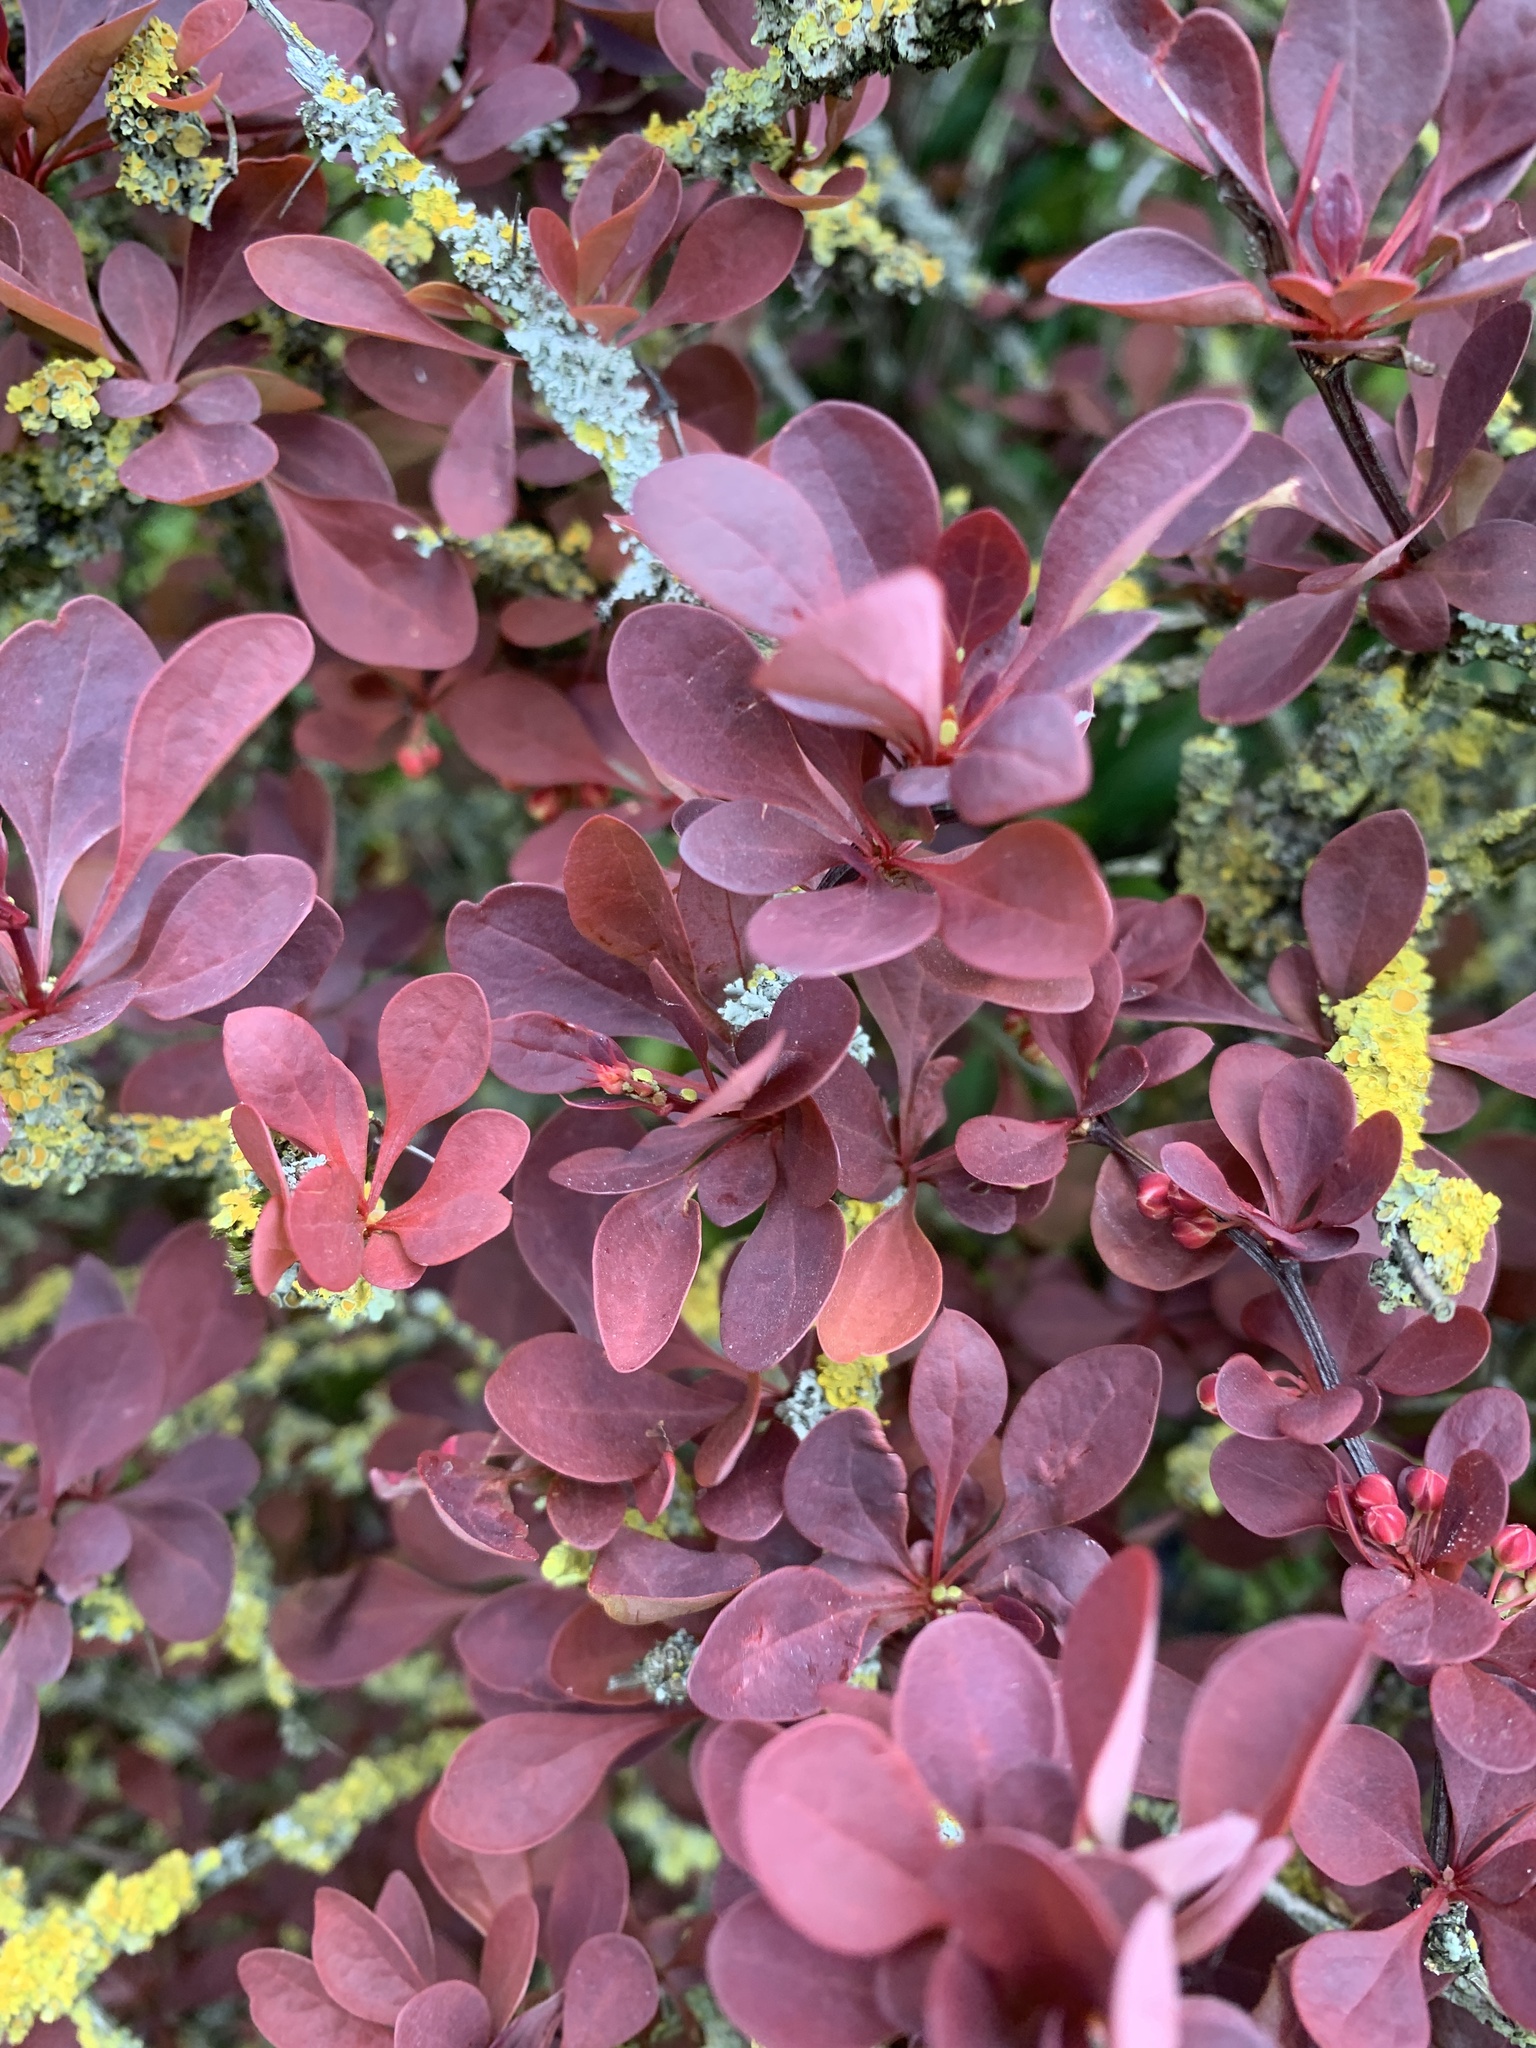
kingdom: Plantae
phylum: Tracheophyta
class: Magnoliopsida
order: Ranunculales
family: Berberidaceae
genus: Berberis
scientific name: Berberis thunbergii
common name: Japanese barberry
